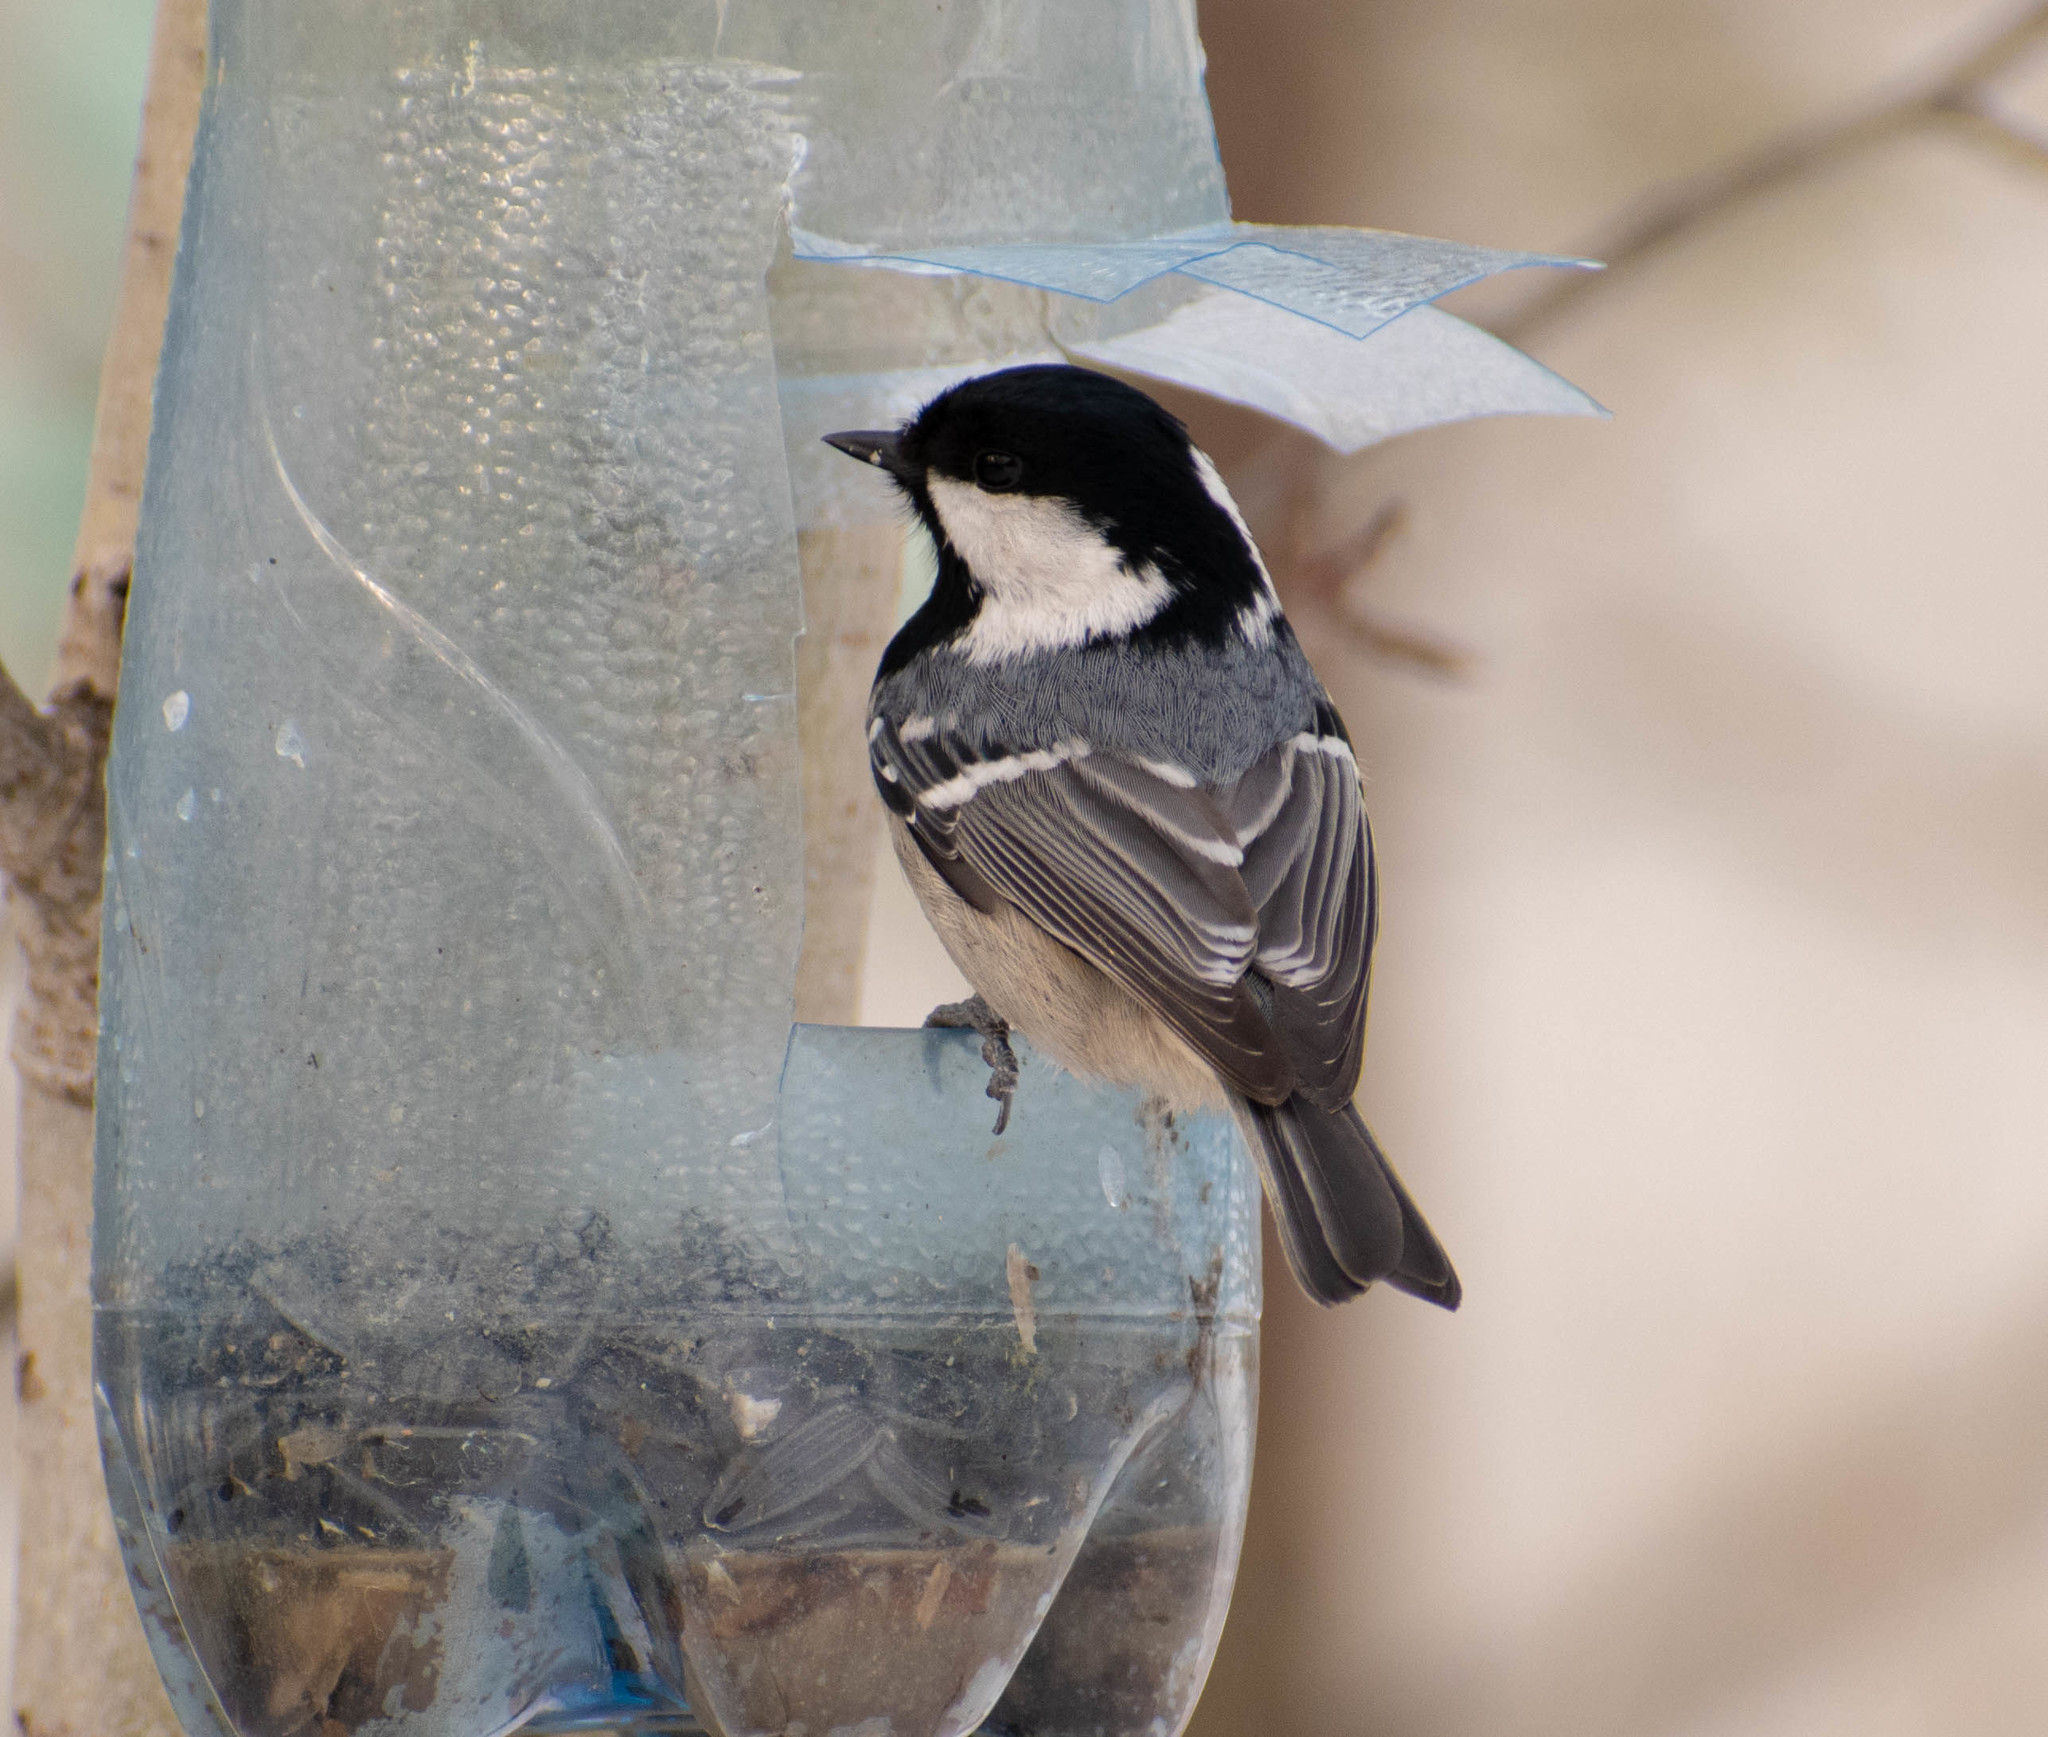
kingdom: Animalia
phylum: Chordata
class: Aves
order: Passeriformes
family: Paridae
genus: Periparus
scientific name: Periparus ater
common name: Coal tit
